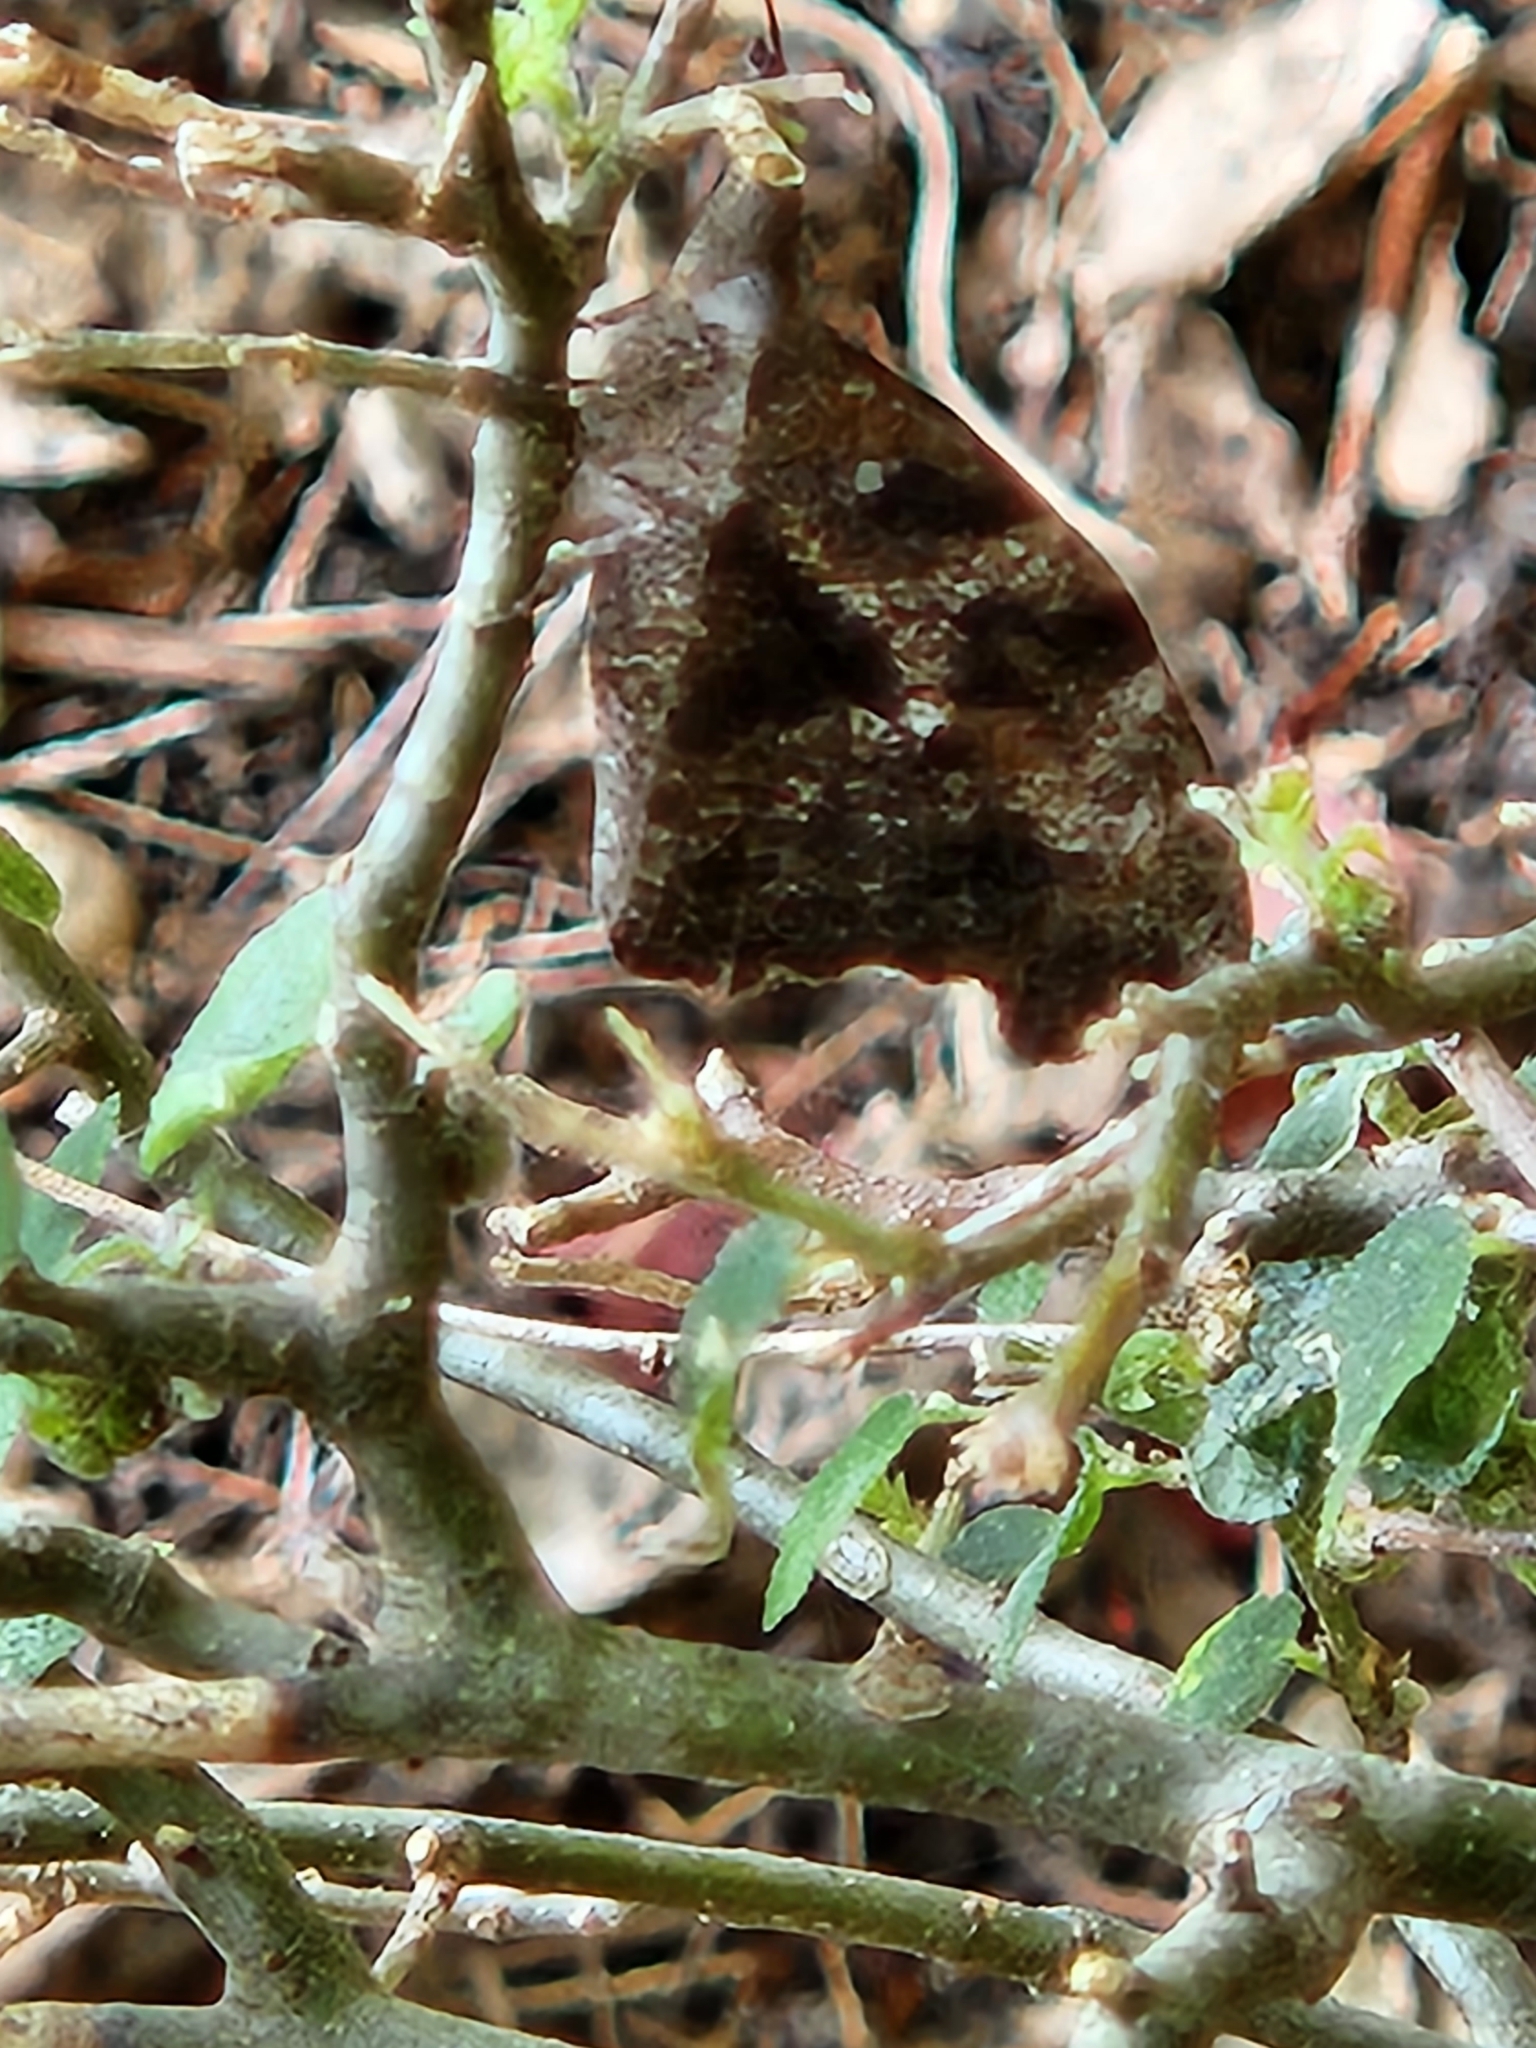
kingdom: Animalia
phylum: Arthropoda
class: Insecta
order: Lepidoptera
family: Nymphalidae
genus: Libytheana
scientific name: Libytheana carinenta
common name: American snout
